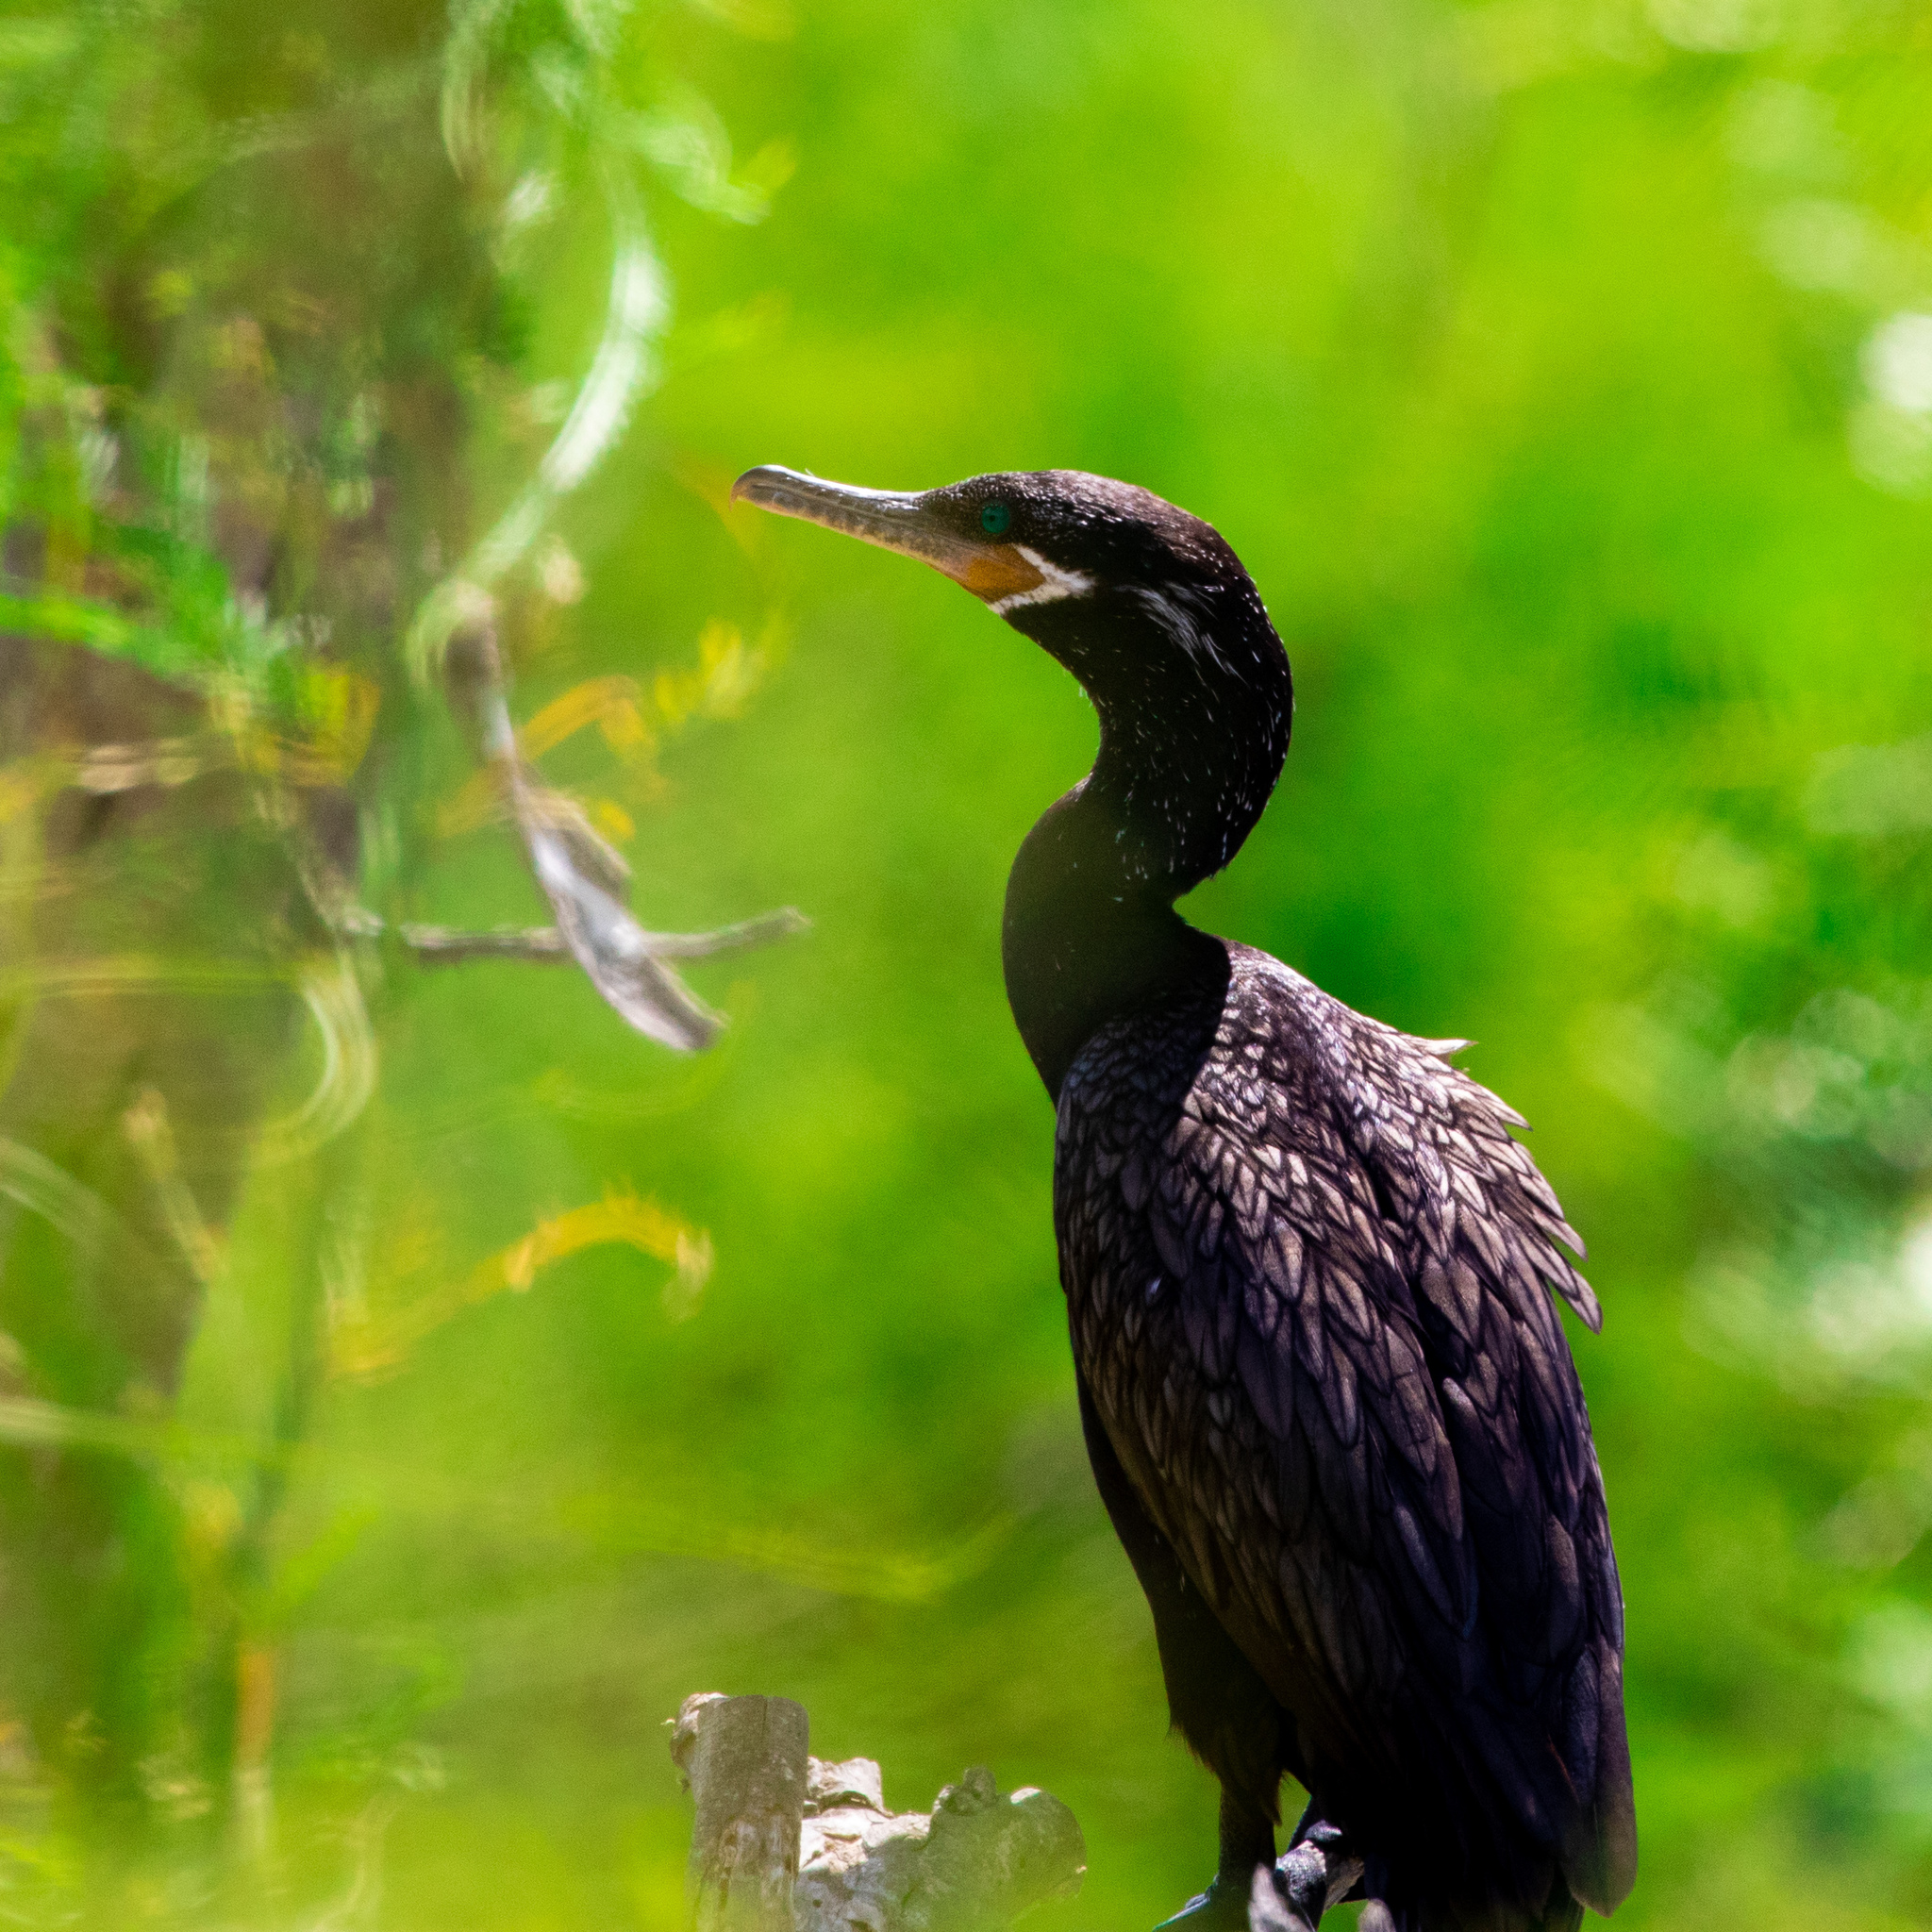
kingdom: Animalia
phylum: Chordata
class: Aves
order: Suliformes
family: Phalacrocoracidae
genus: Phalacrocorax
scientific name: Phalacrocorax brasilianus
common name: Neotropic cormorant
